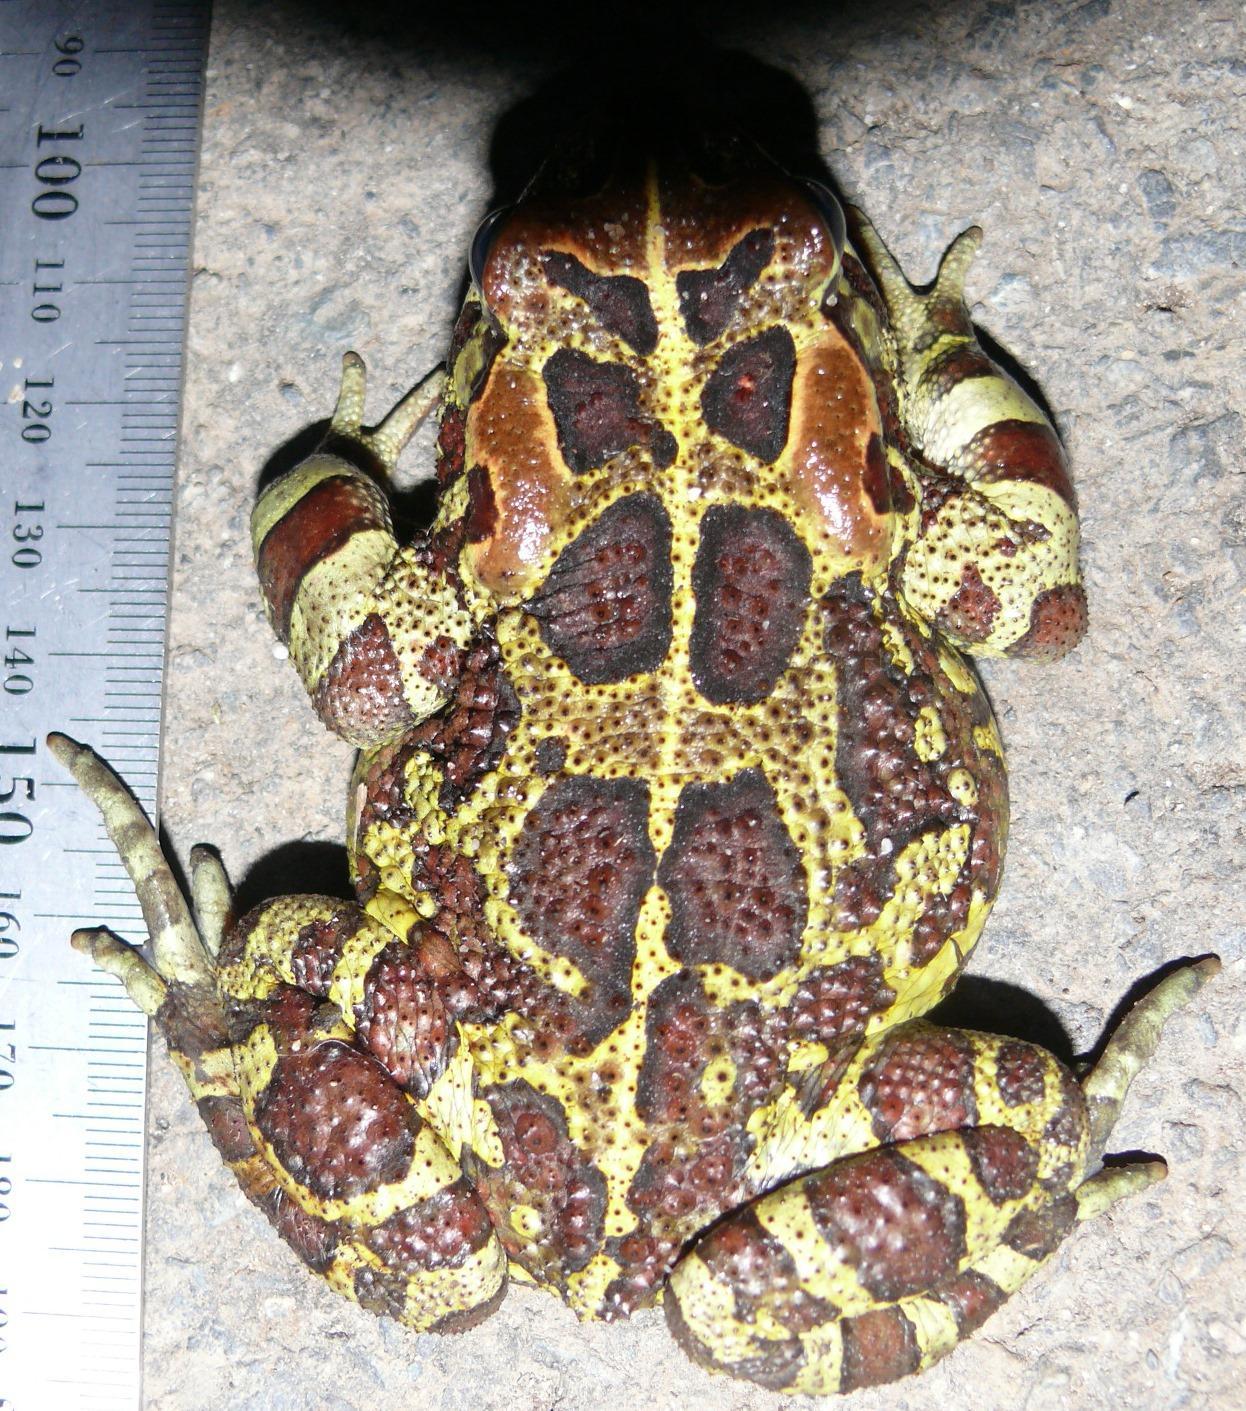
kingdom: Animalia
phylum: Chordata
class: Amphibia
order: Anura
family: Bufonidae
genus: Sclerophrys
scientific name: Sclerophrys pantherina
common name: Panther toad
